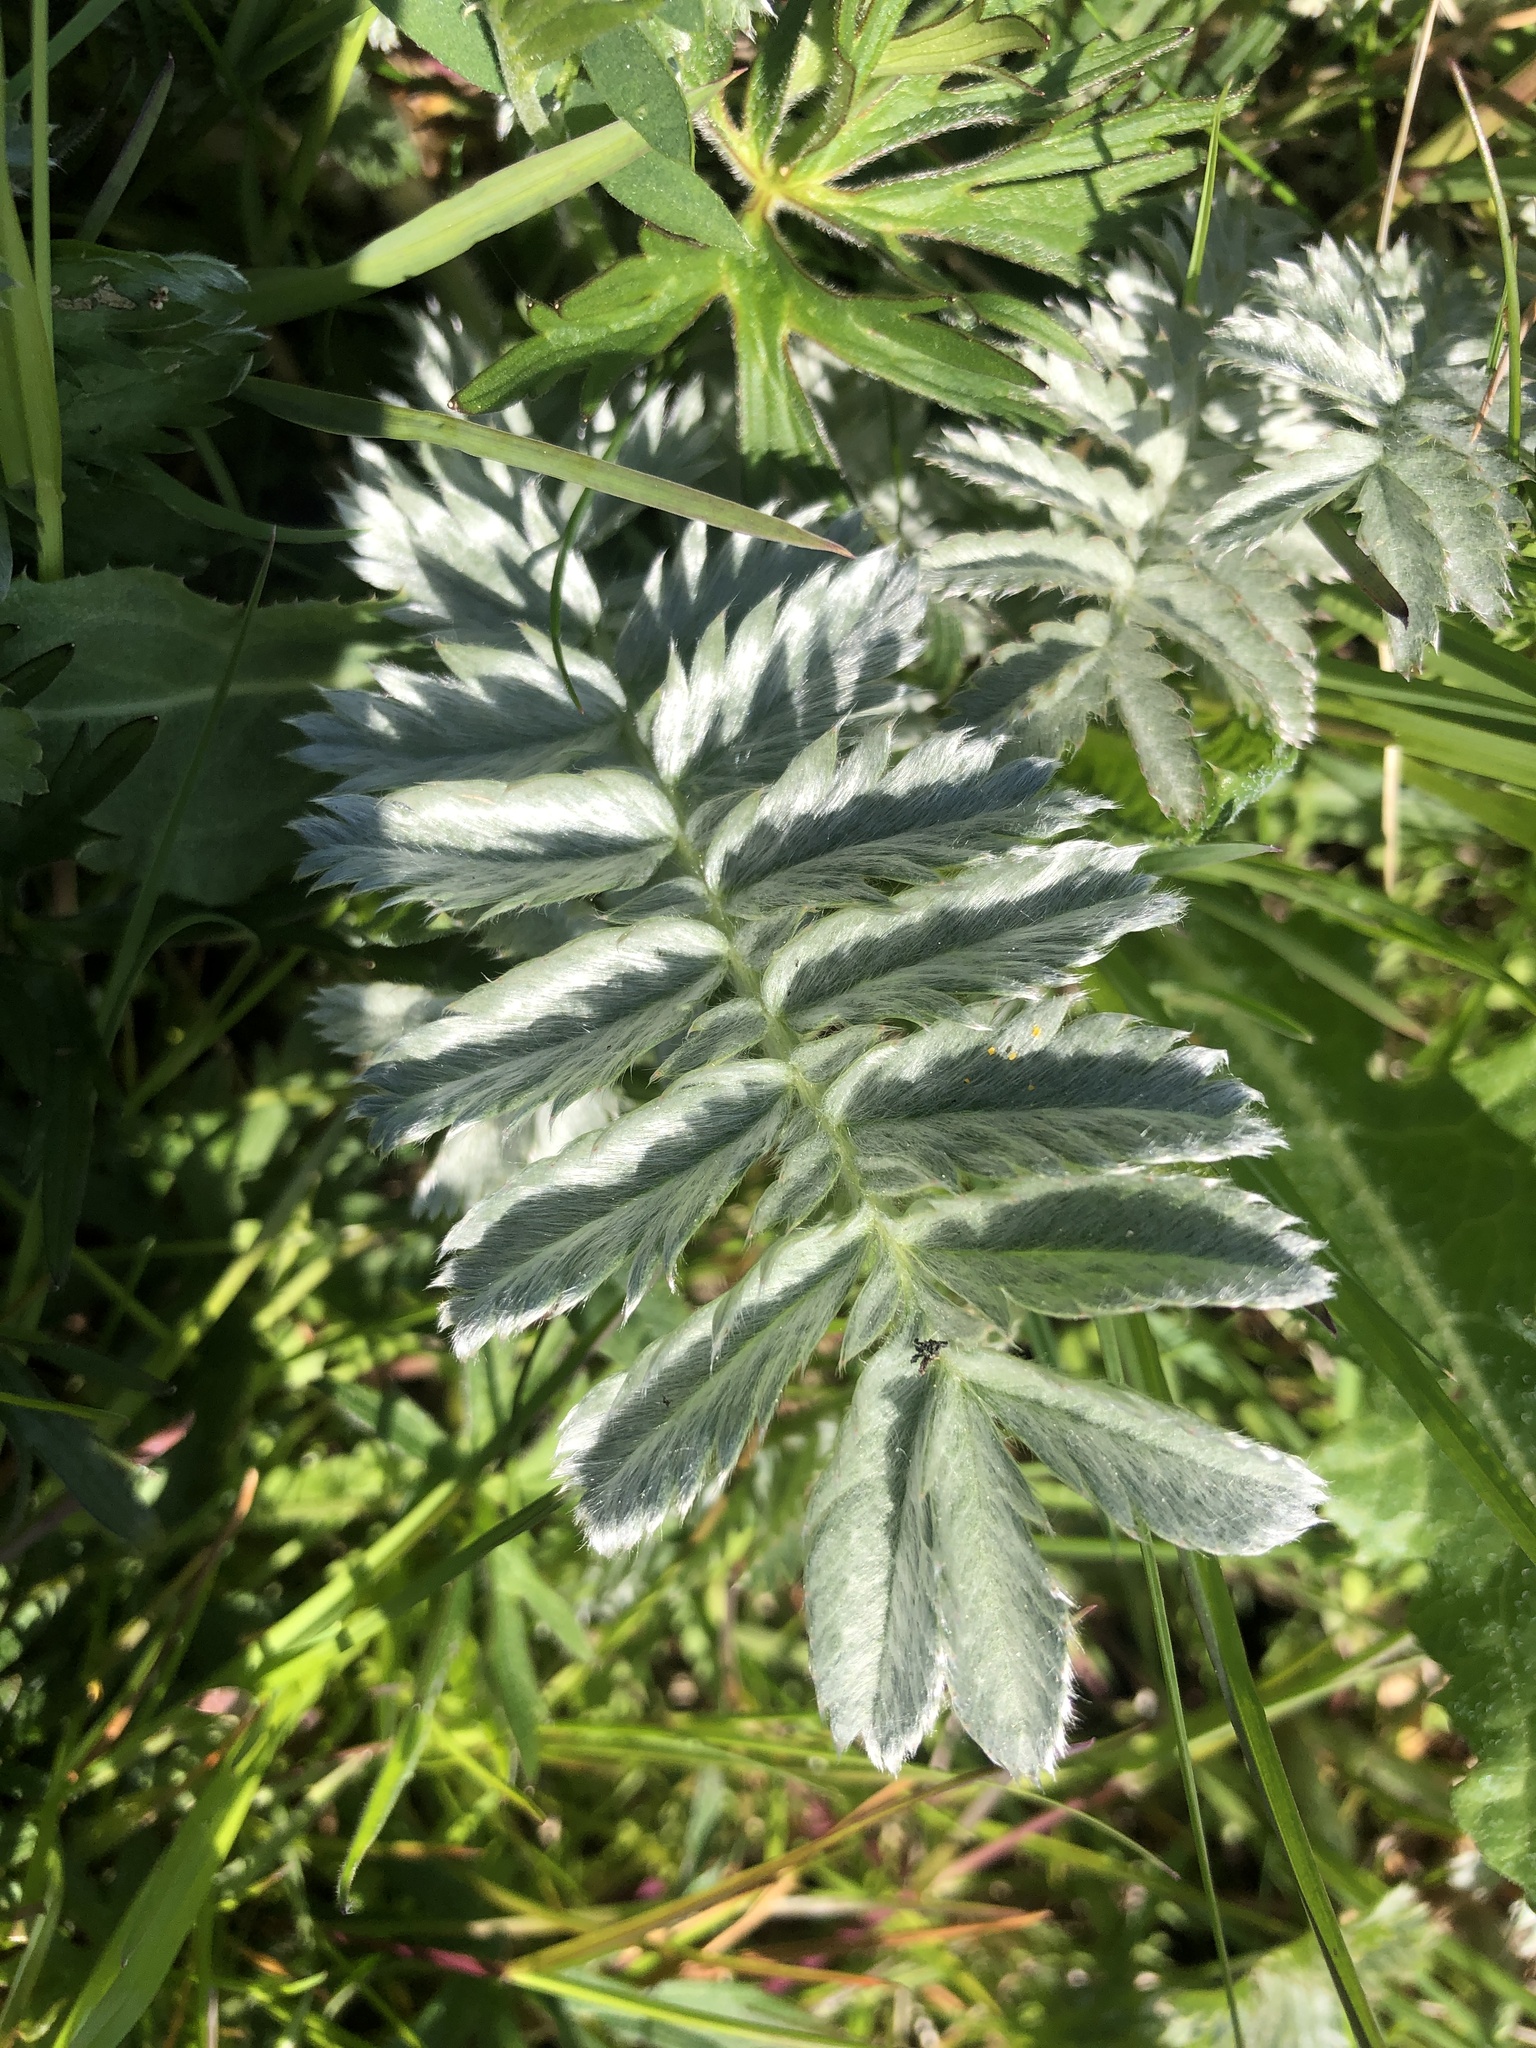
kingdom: Plantae
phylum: Tracheophyta
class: Magnoliopsida
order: Rosales
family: Rosaceae
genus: Argentina
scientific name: Argentina anserina
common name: Common silverweed
